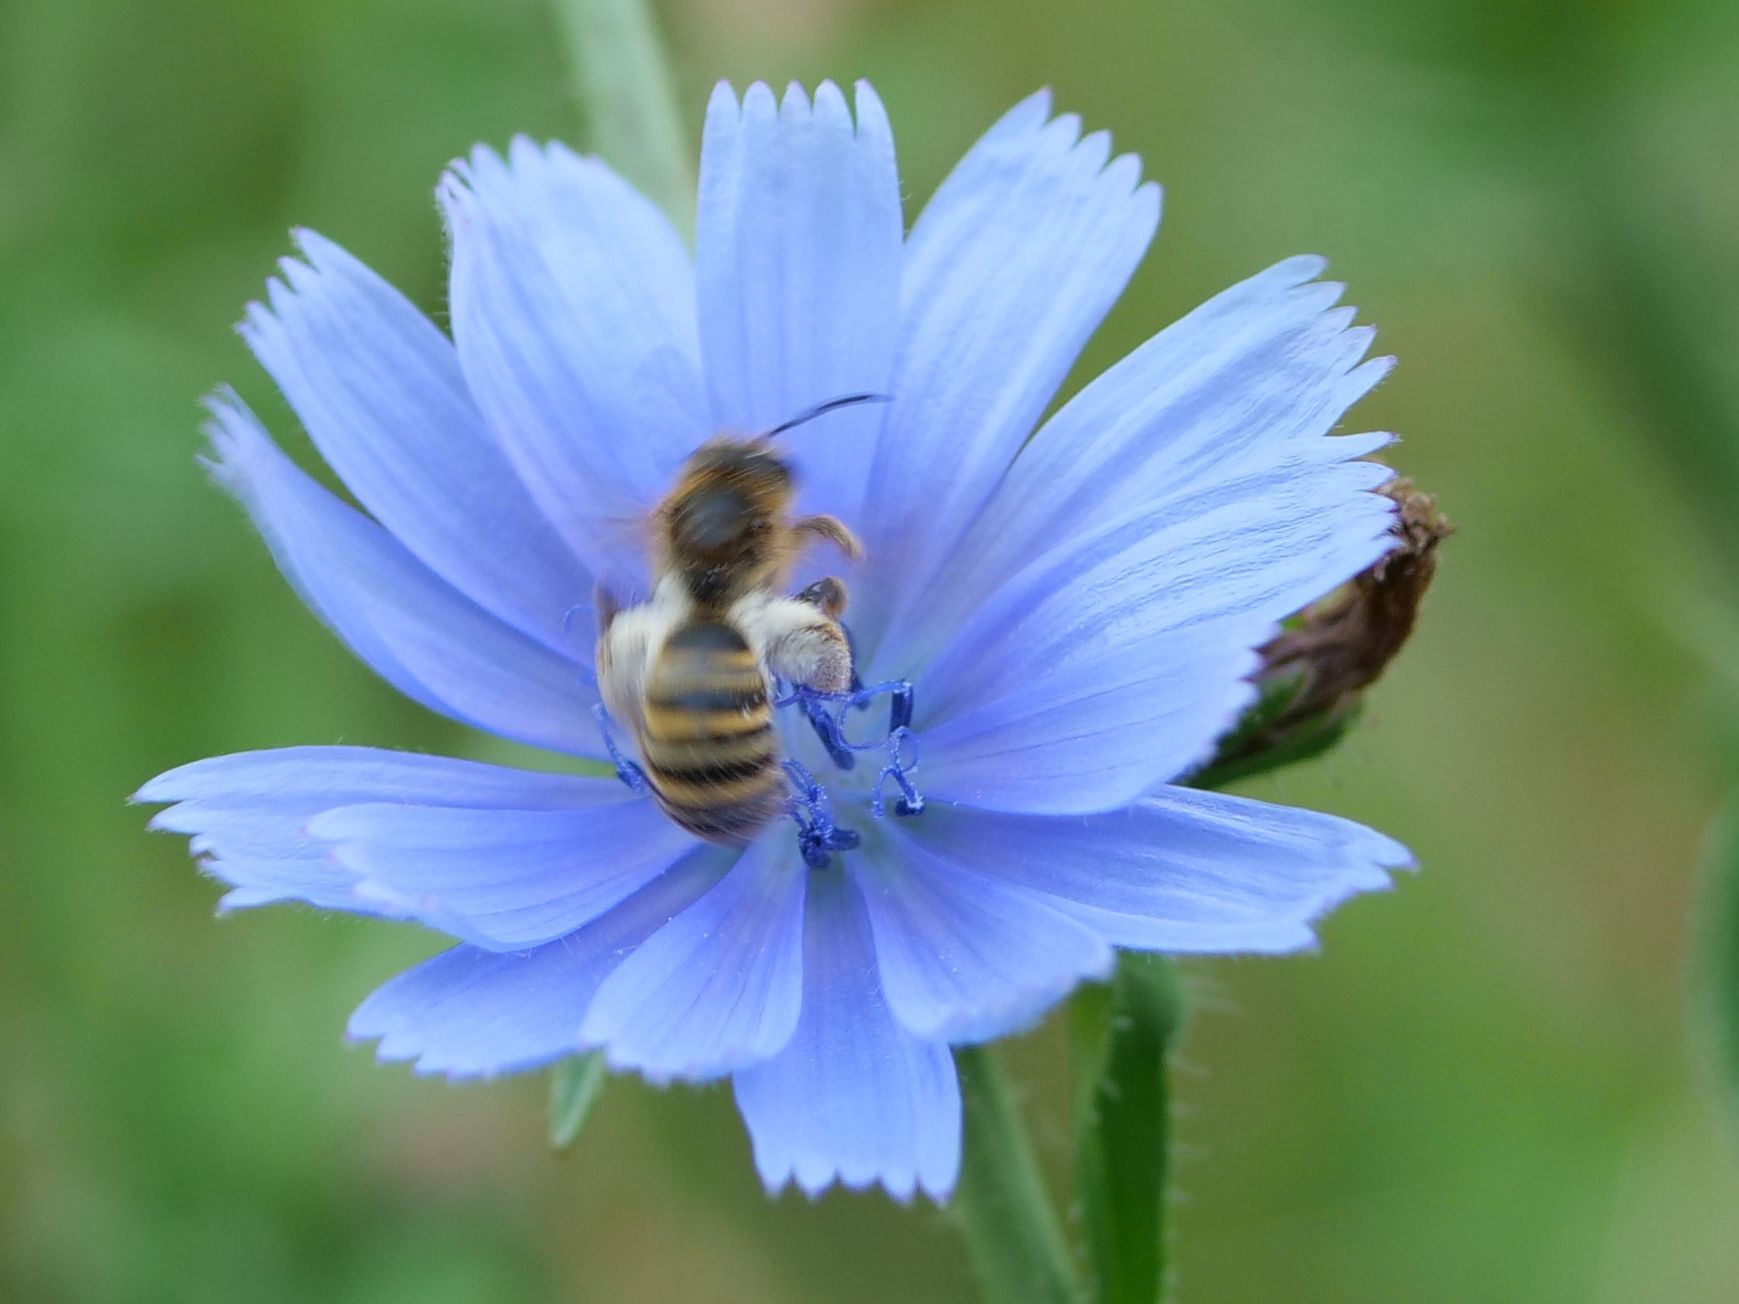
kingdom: Animalia
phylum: Arthropoda
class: Insecta
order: Hymenoptera
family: Halictidae
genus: Halictus
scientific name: Halictus scabiosae
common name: Great banded furrow bee
